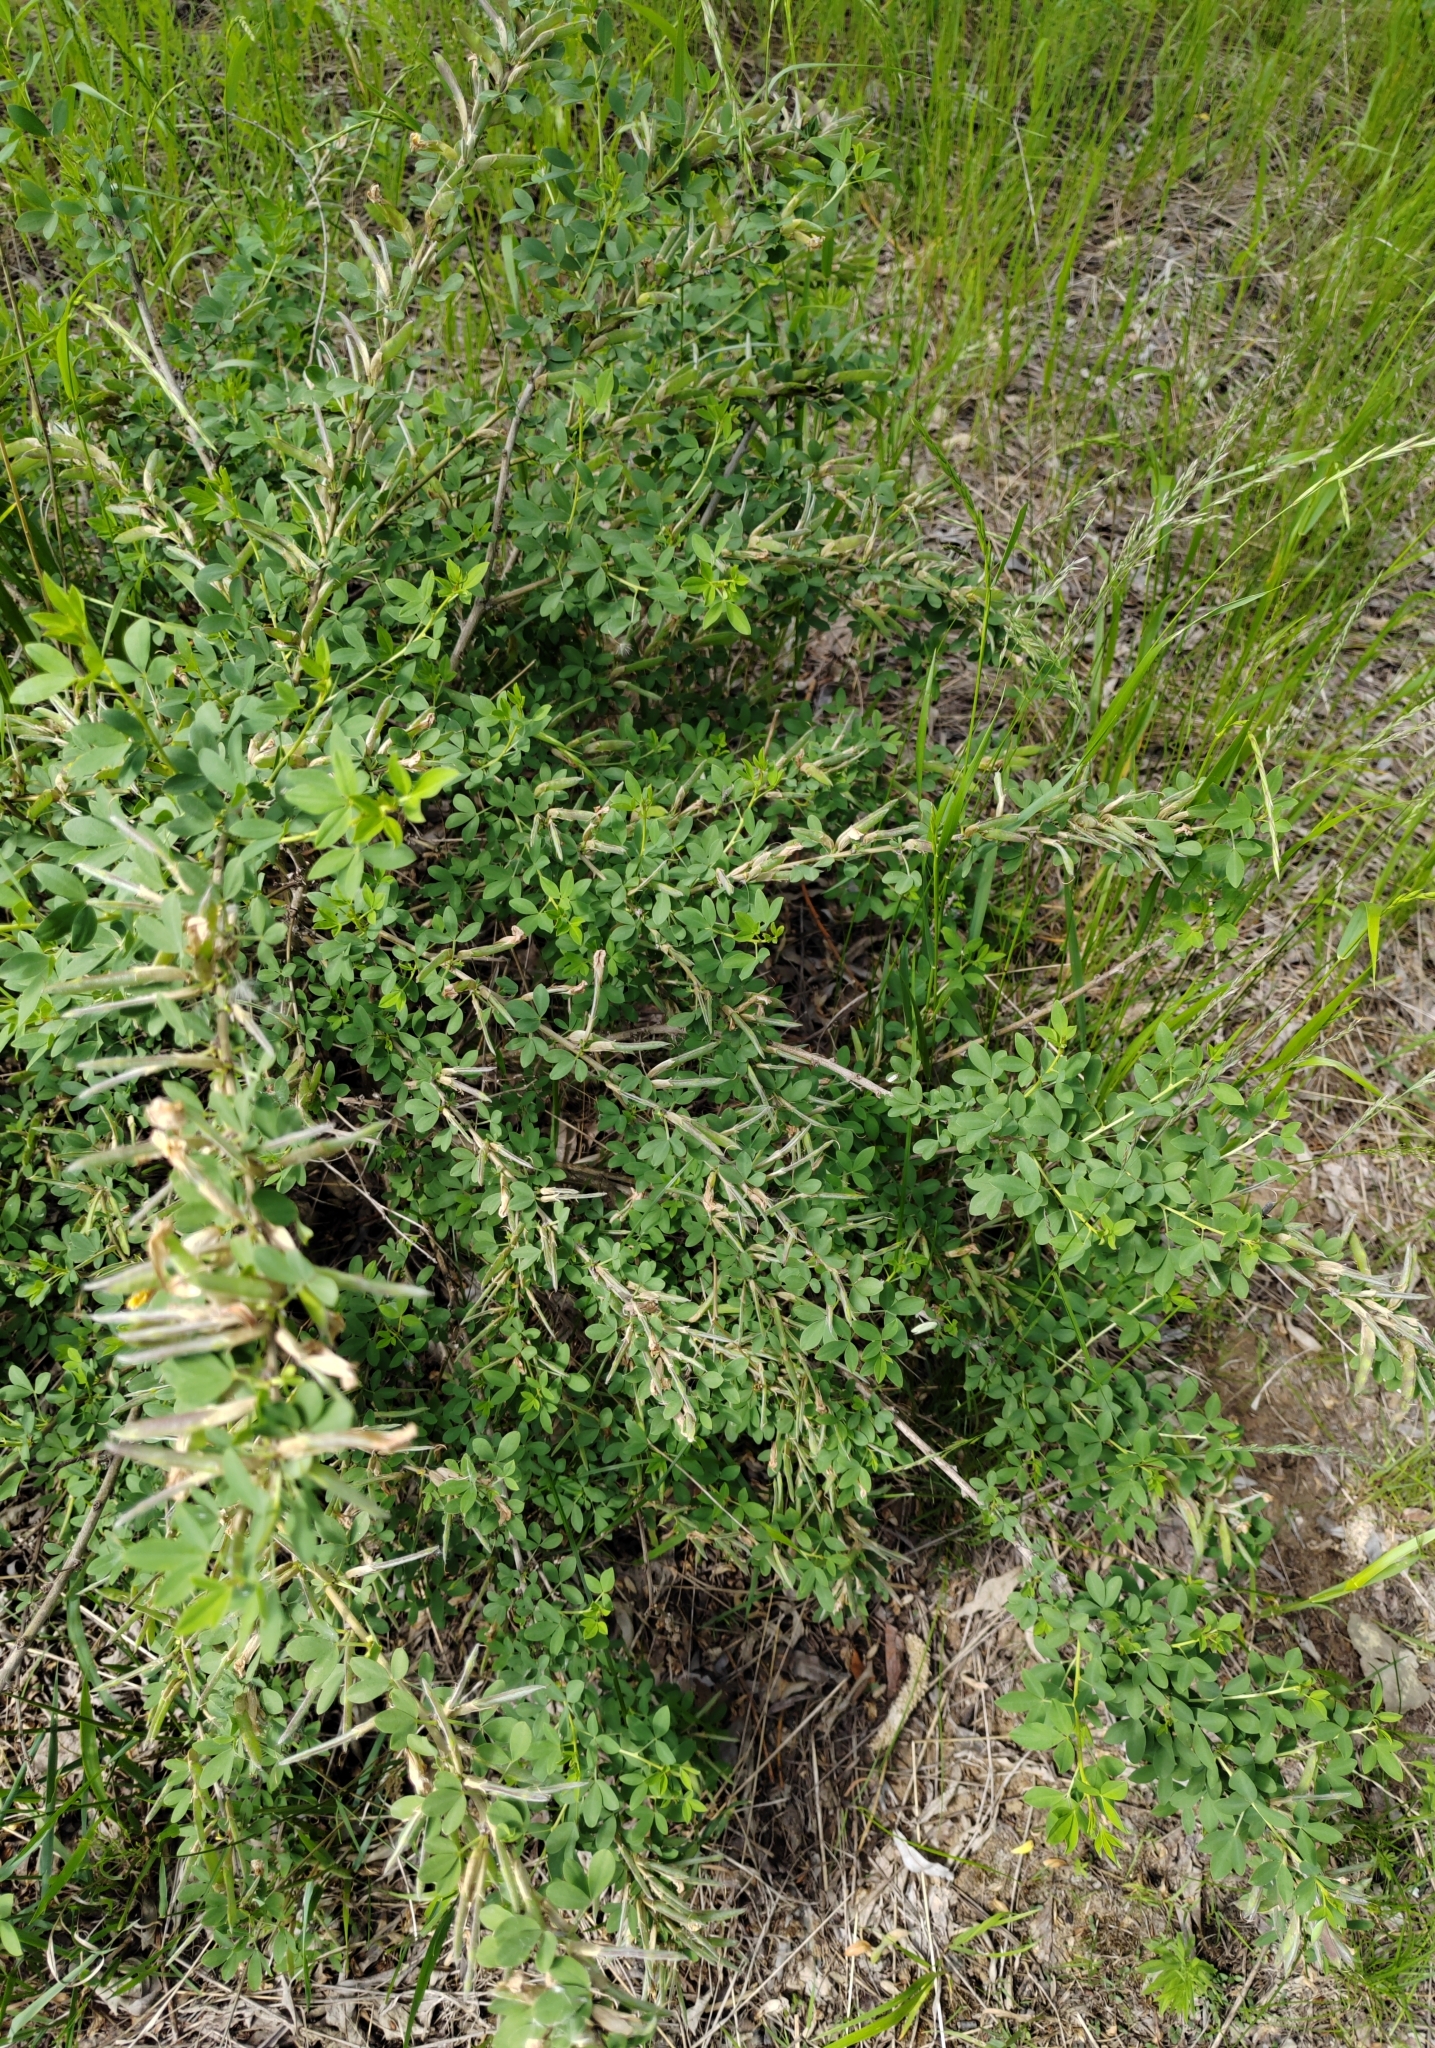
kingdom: Plantae
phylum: Tracheophyta
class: Magnoliopsida
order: Fabales
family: Fabaceae
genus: Chamaecytisus
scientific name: Chamaecytisus ruthenicus
